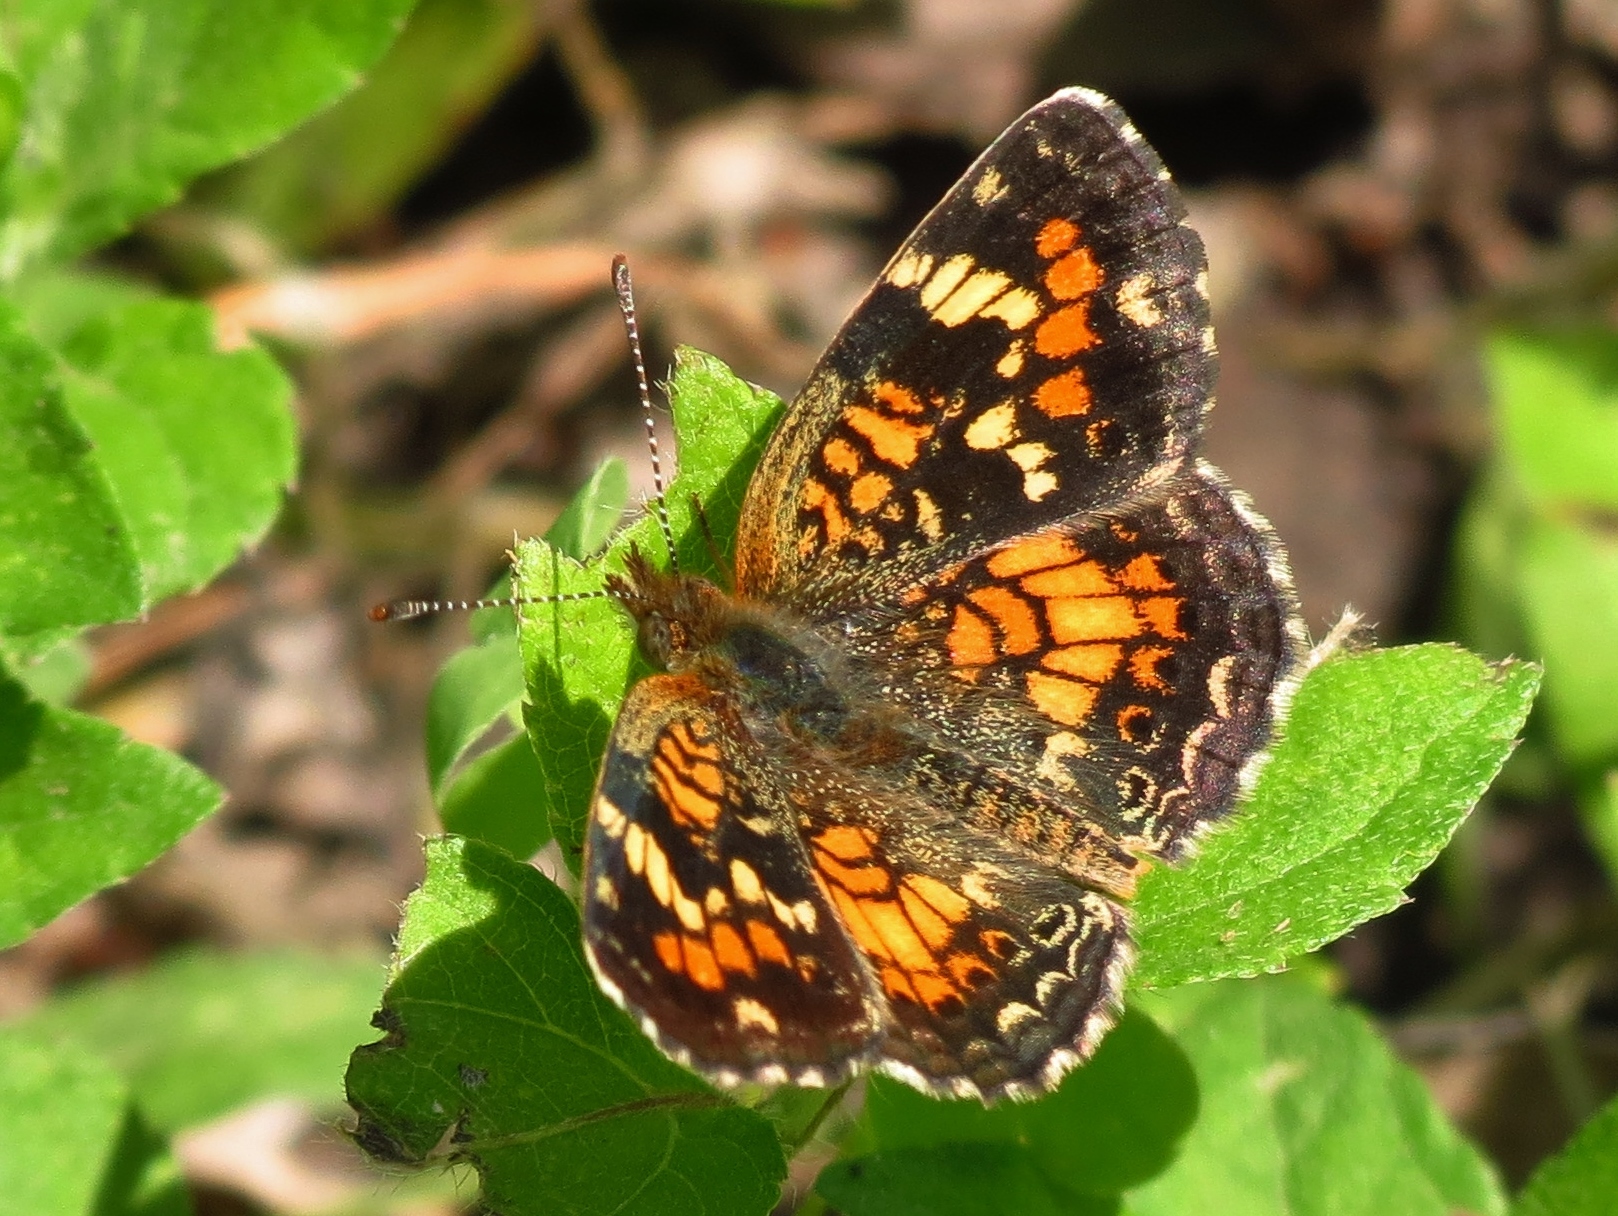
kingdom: Animalia
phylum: Arthropoda
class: Insecta
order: Lepidoptera
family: Nymphalidae
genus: Phyciodes
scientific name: Phyciodes phaon
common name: Phaon crescent
